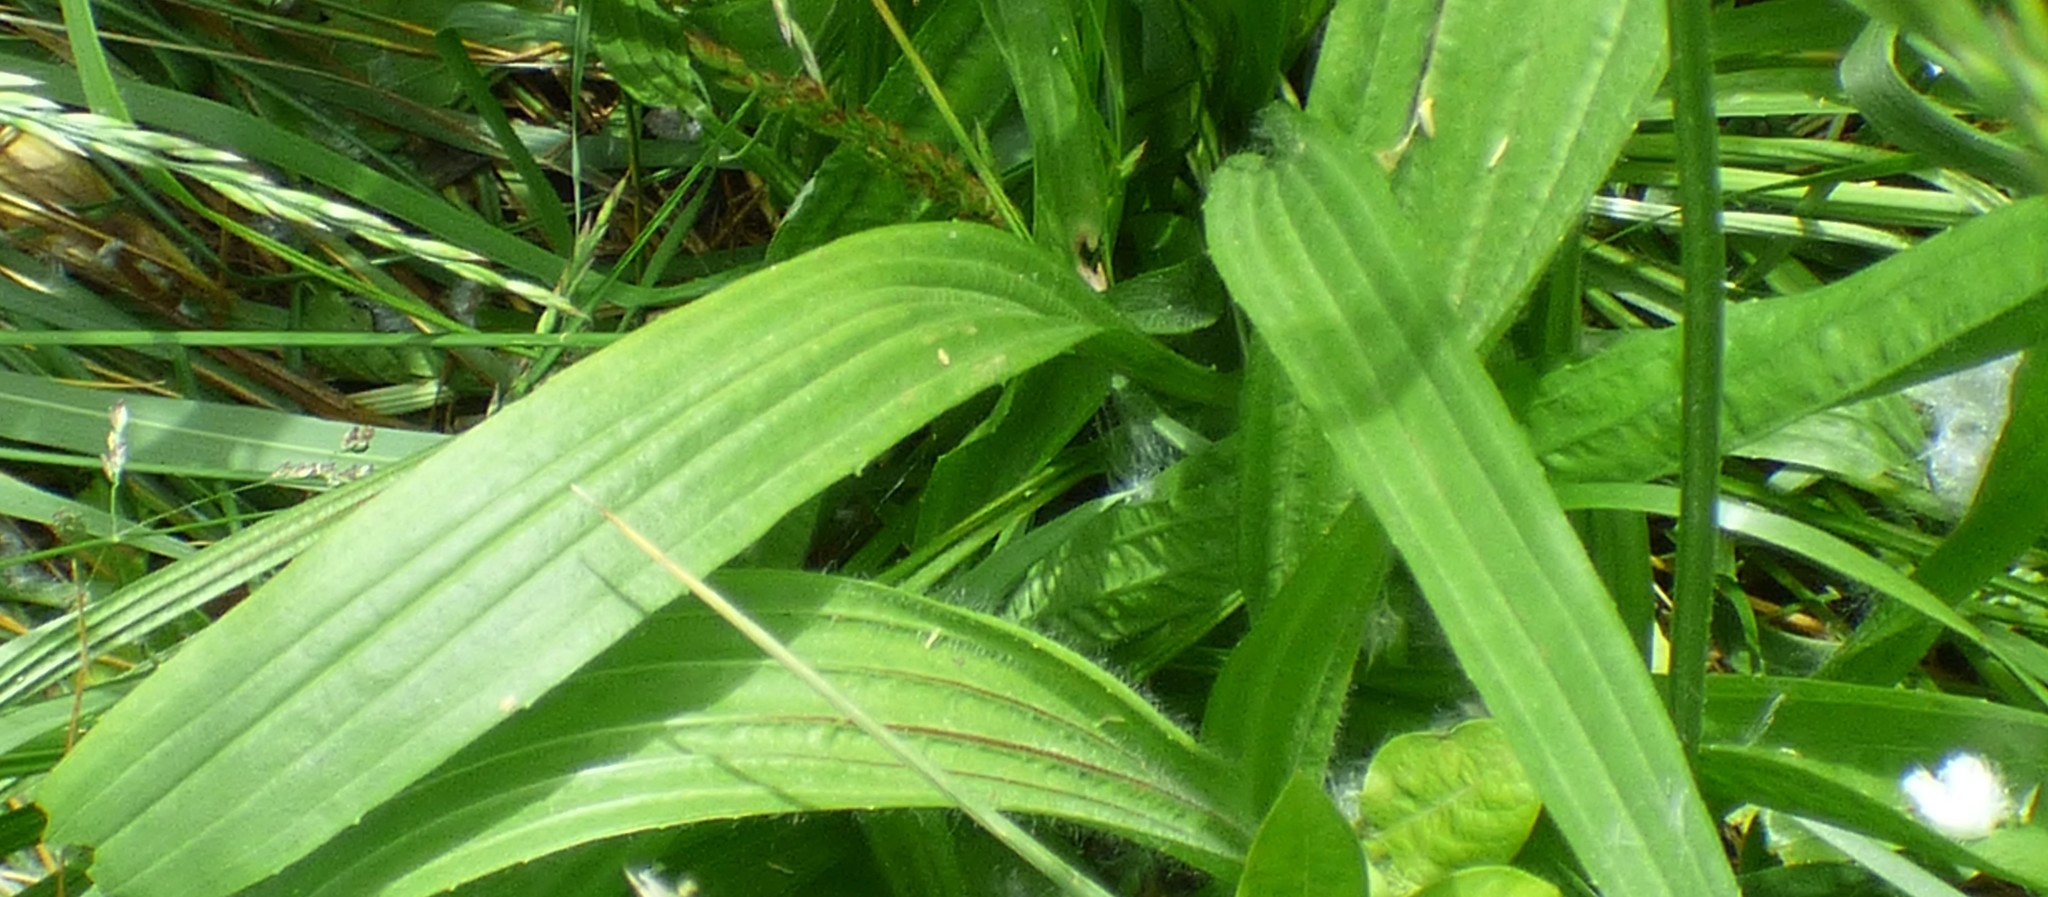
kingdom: Plantae
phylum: Tracheophyta
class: Magnoliopsida
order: Lamiales
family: Plantaginaceae
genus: Plantago
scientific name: Plantago lanceolata
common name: Ribwort plantain
